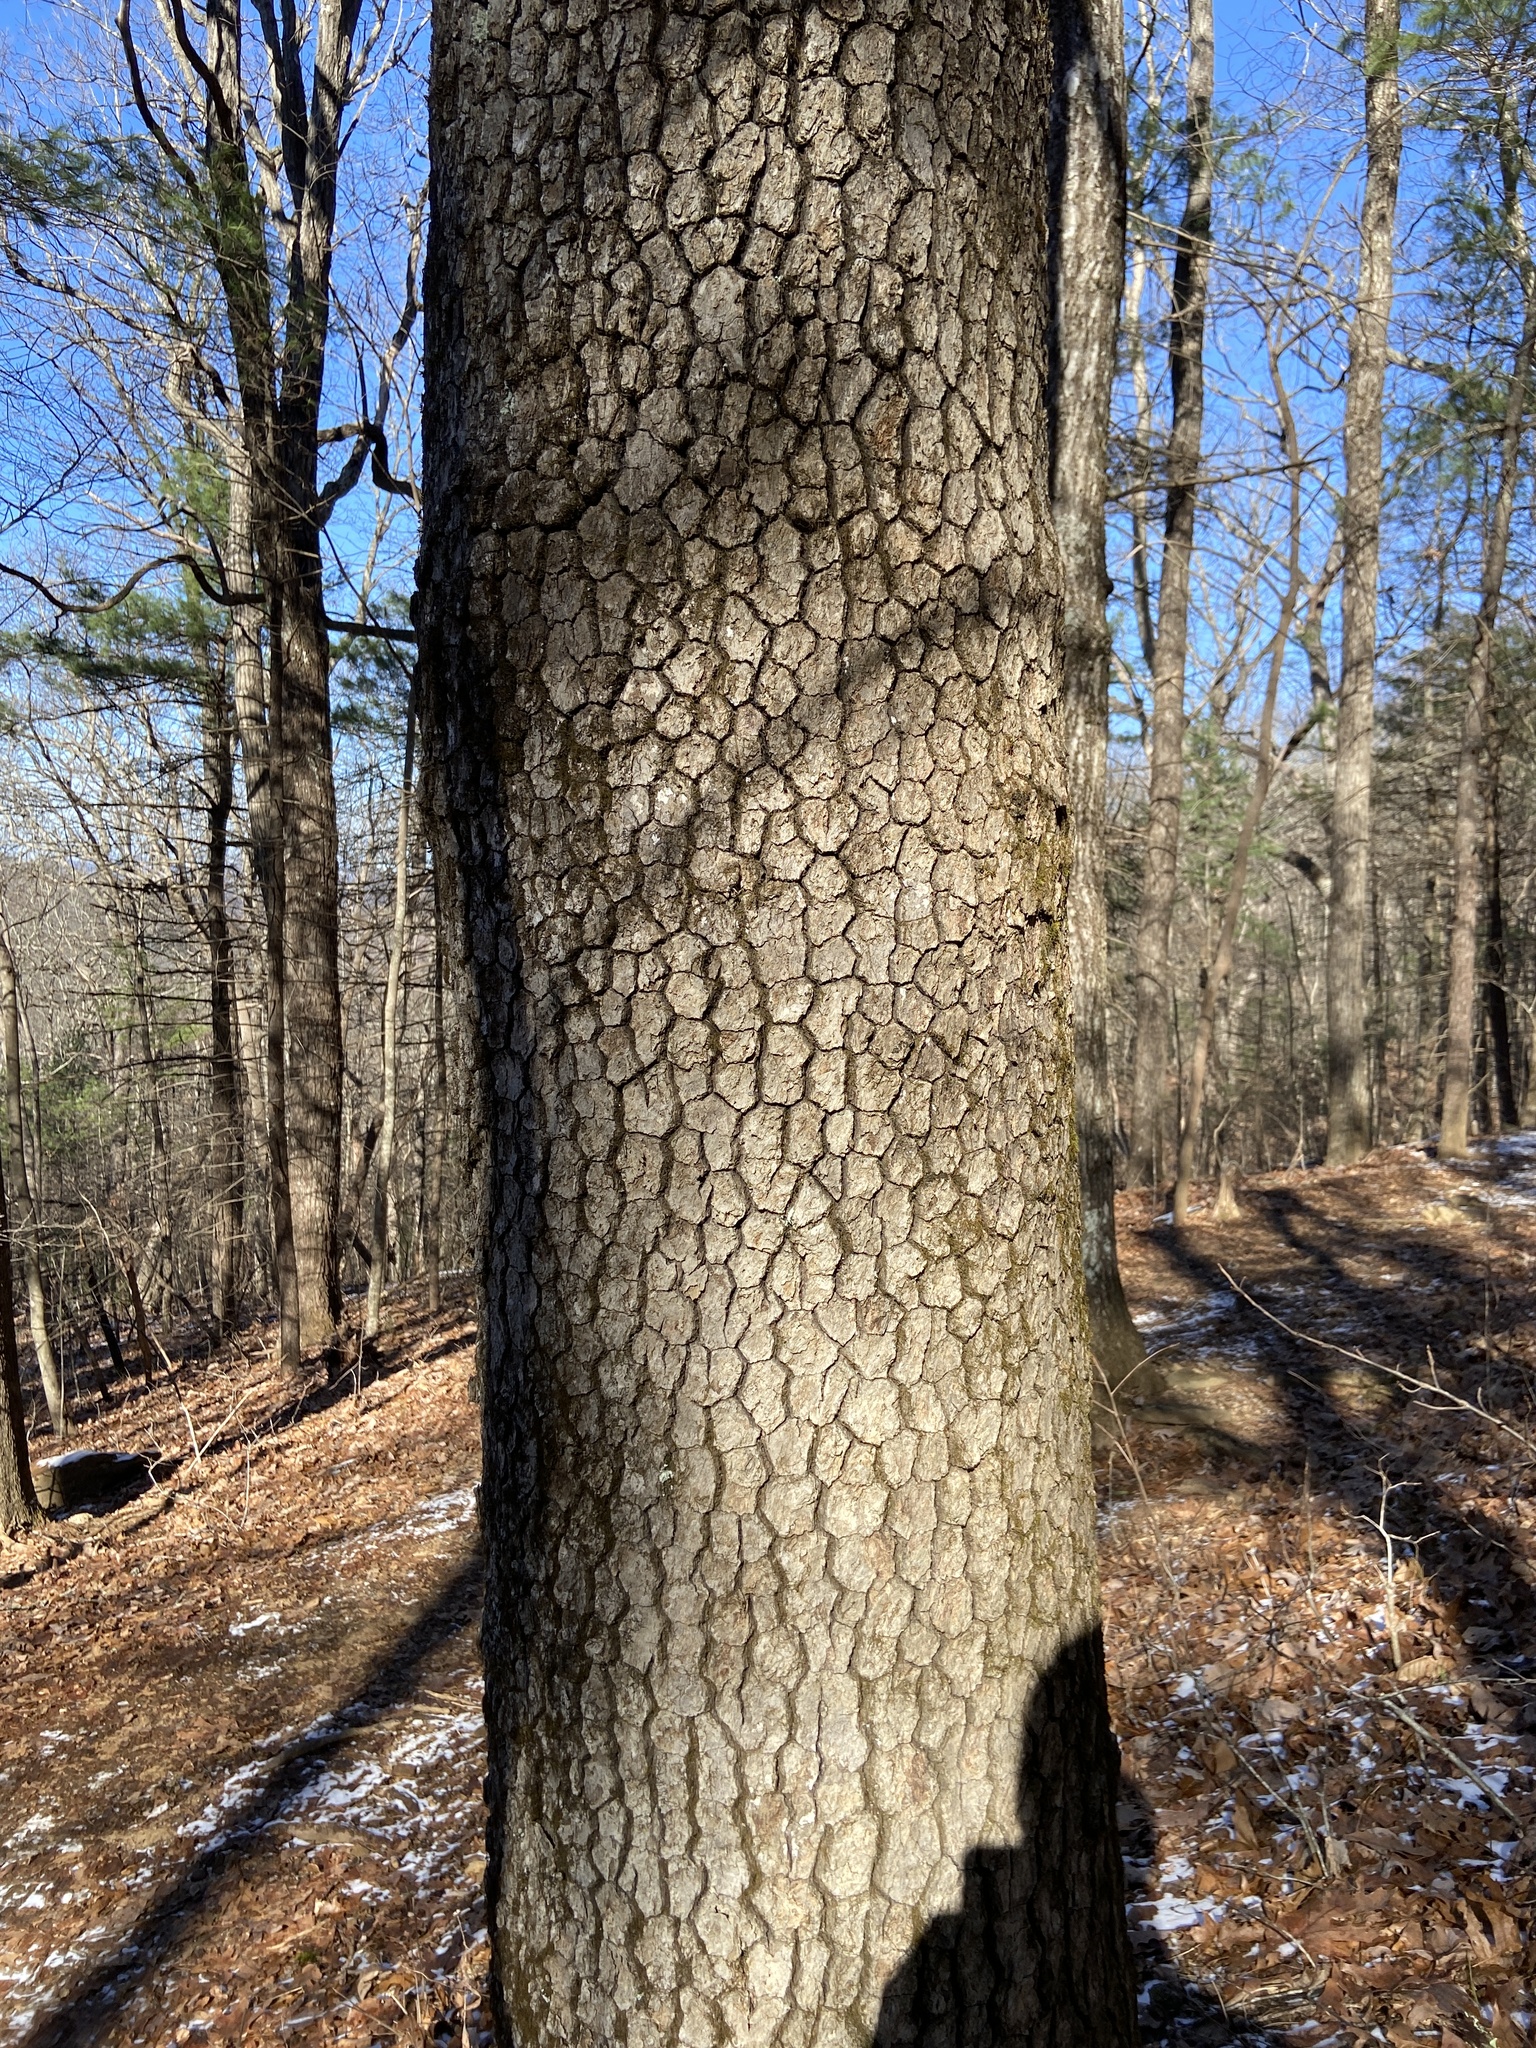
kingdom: Plantae
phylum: Tracheophyta
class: Magnoliopsida
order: Cornales
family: Nyssaceae
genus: Nyssa
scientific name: Nyssa sylvatica
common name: Black tupelo
